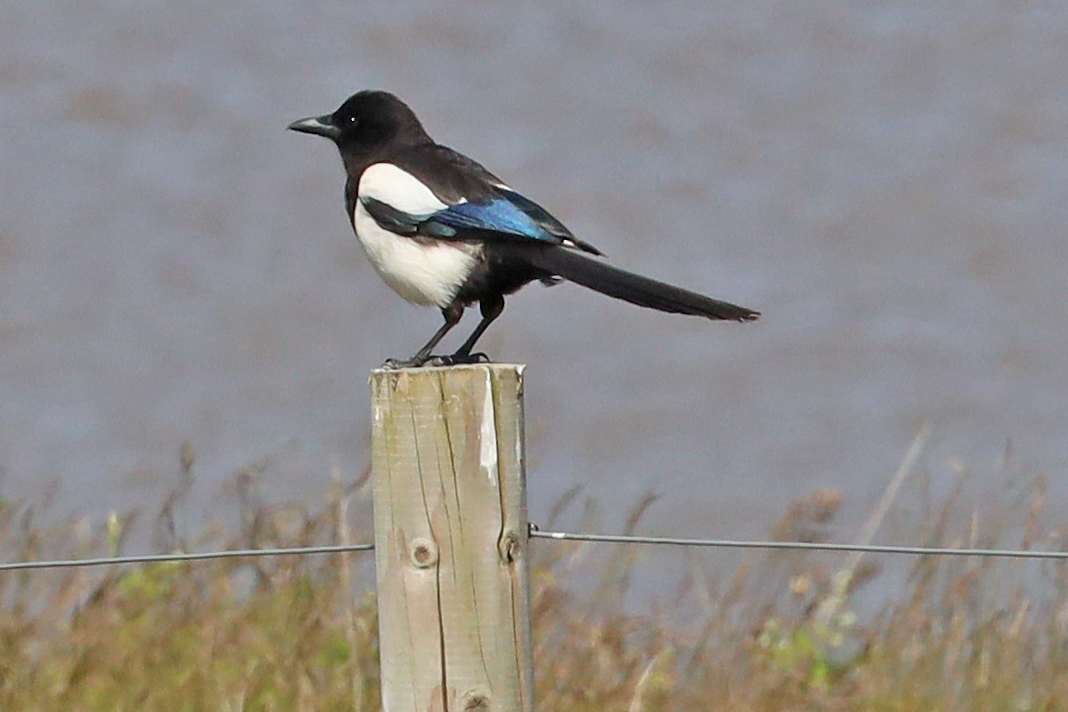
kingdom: Animalia
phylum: Chordata
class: Aves
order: Passeriformes
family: Corvidae
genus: Pica
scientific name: Pica pica
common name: Eurasian magpie
